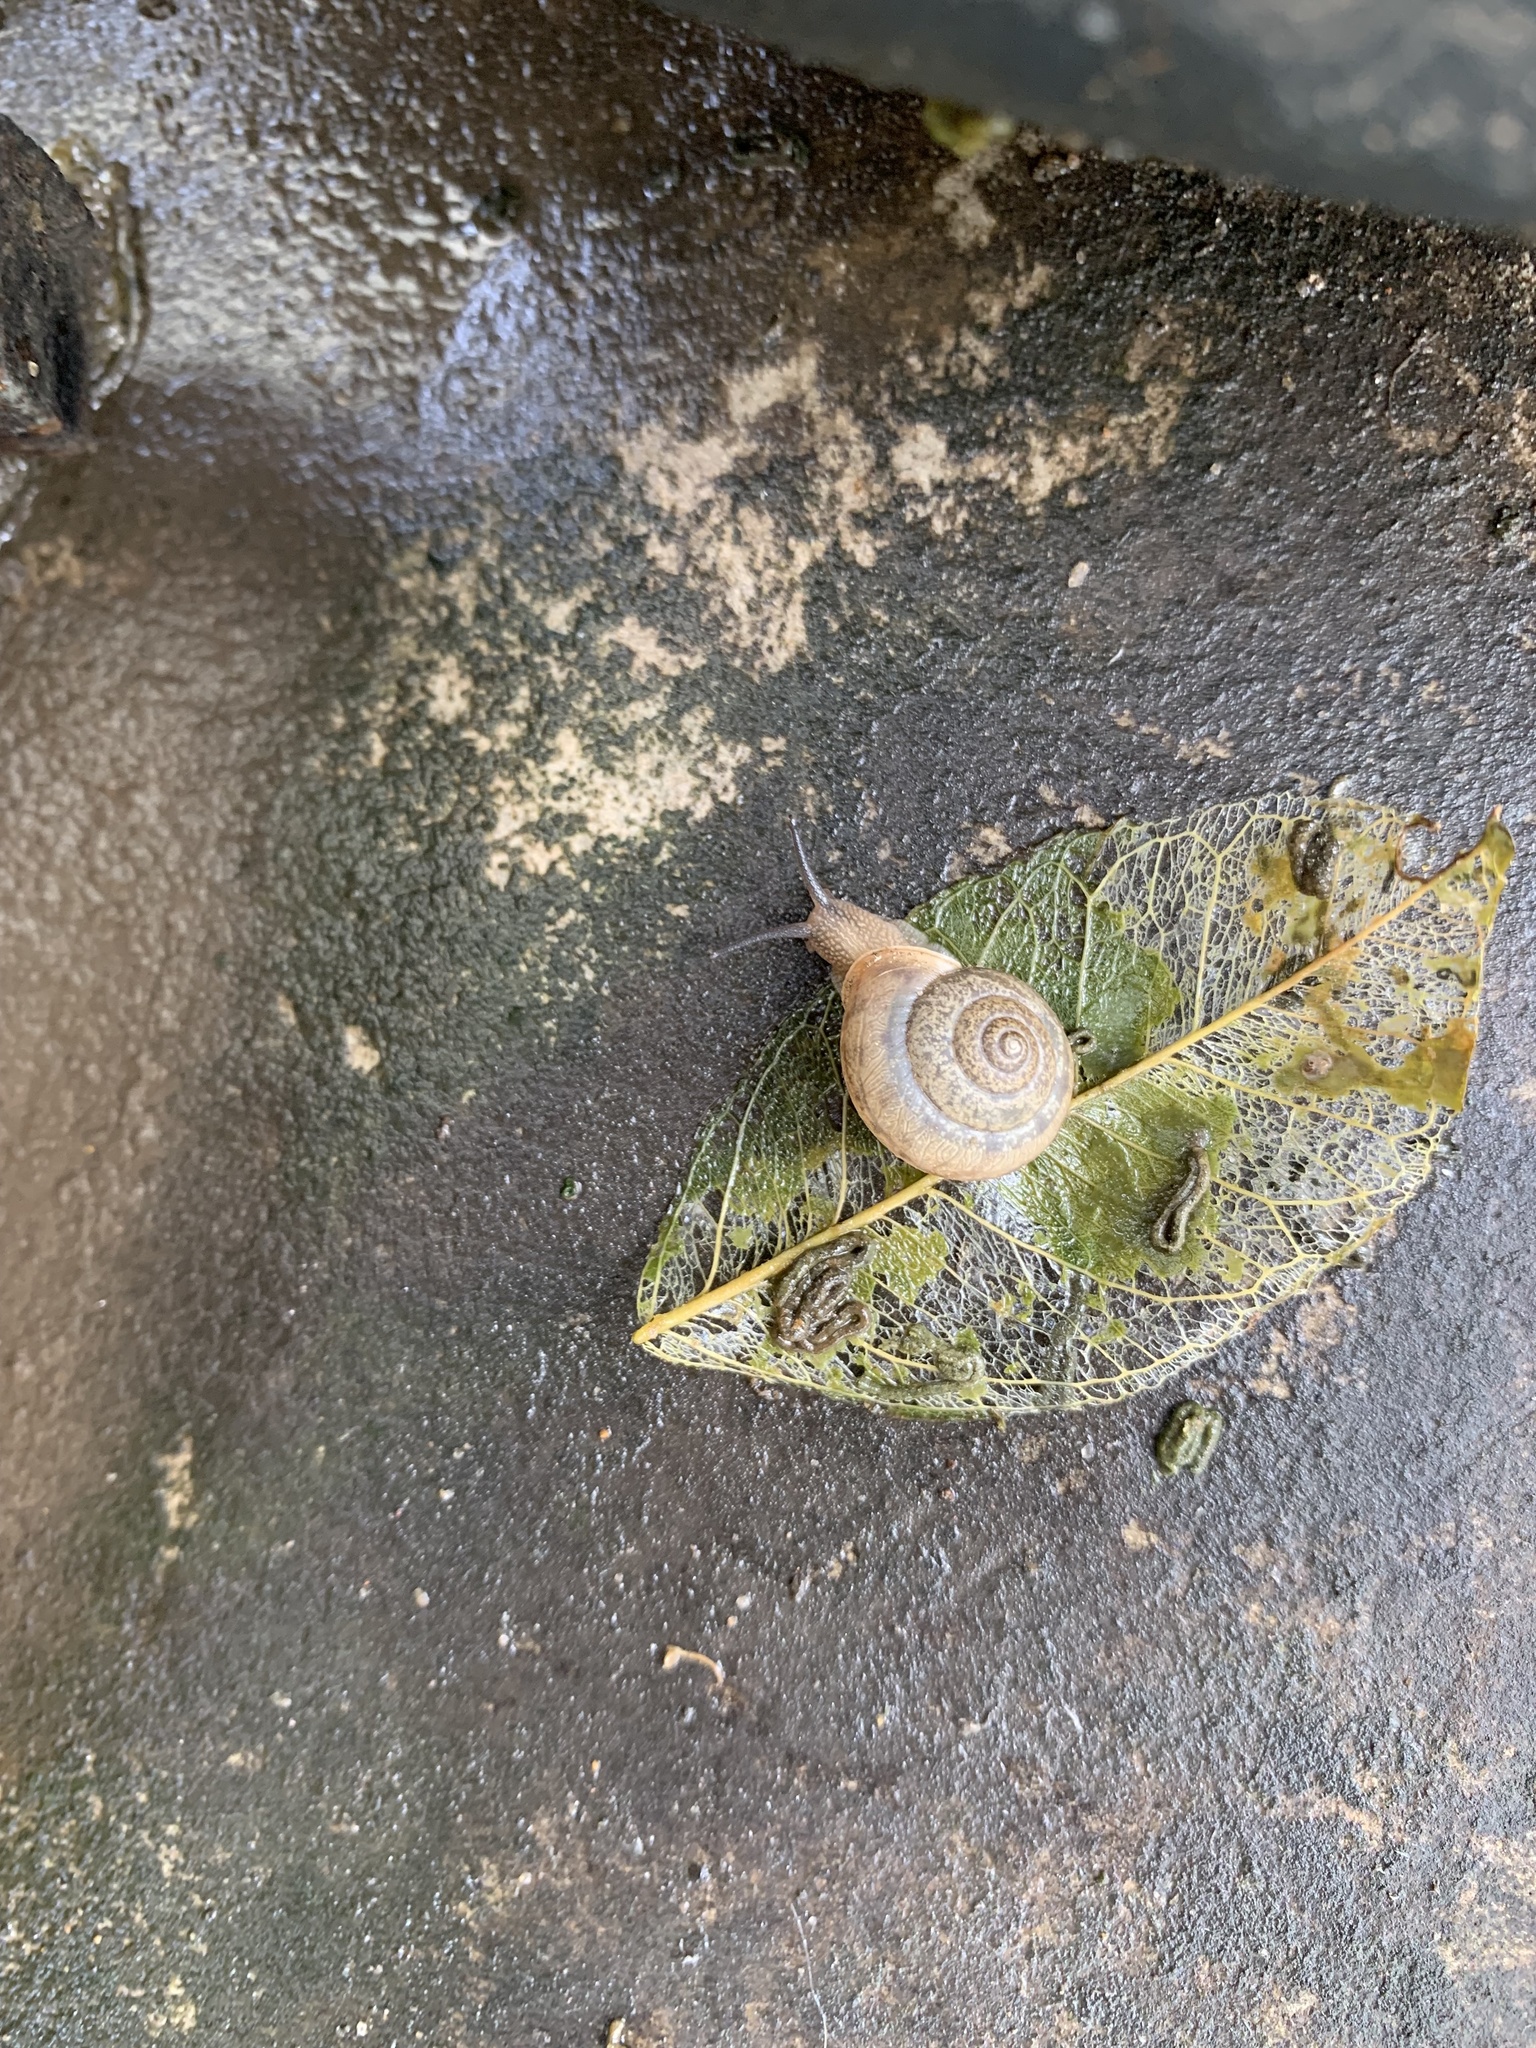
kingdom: Animalia
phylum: Mollusca
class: Gastropoda
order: Stylommatophora
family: Camaenidae
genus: Bradybaena
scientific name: Bradybaena similaris
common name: Asian trampsnail
